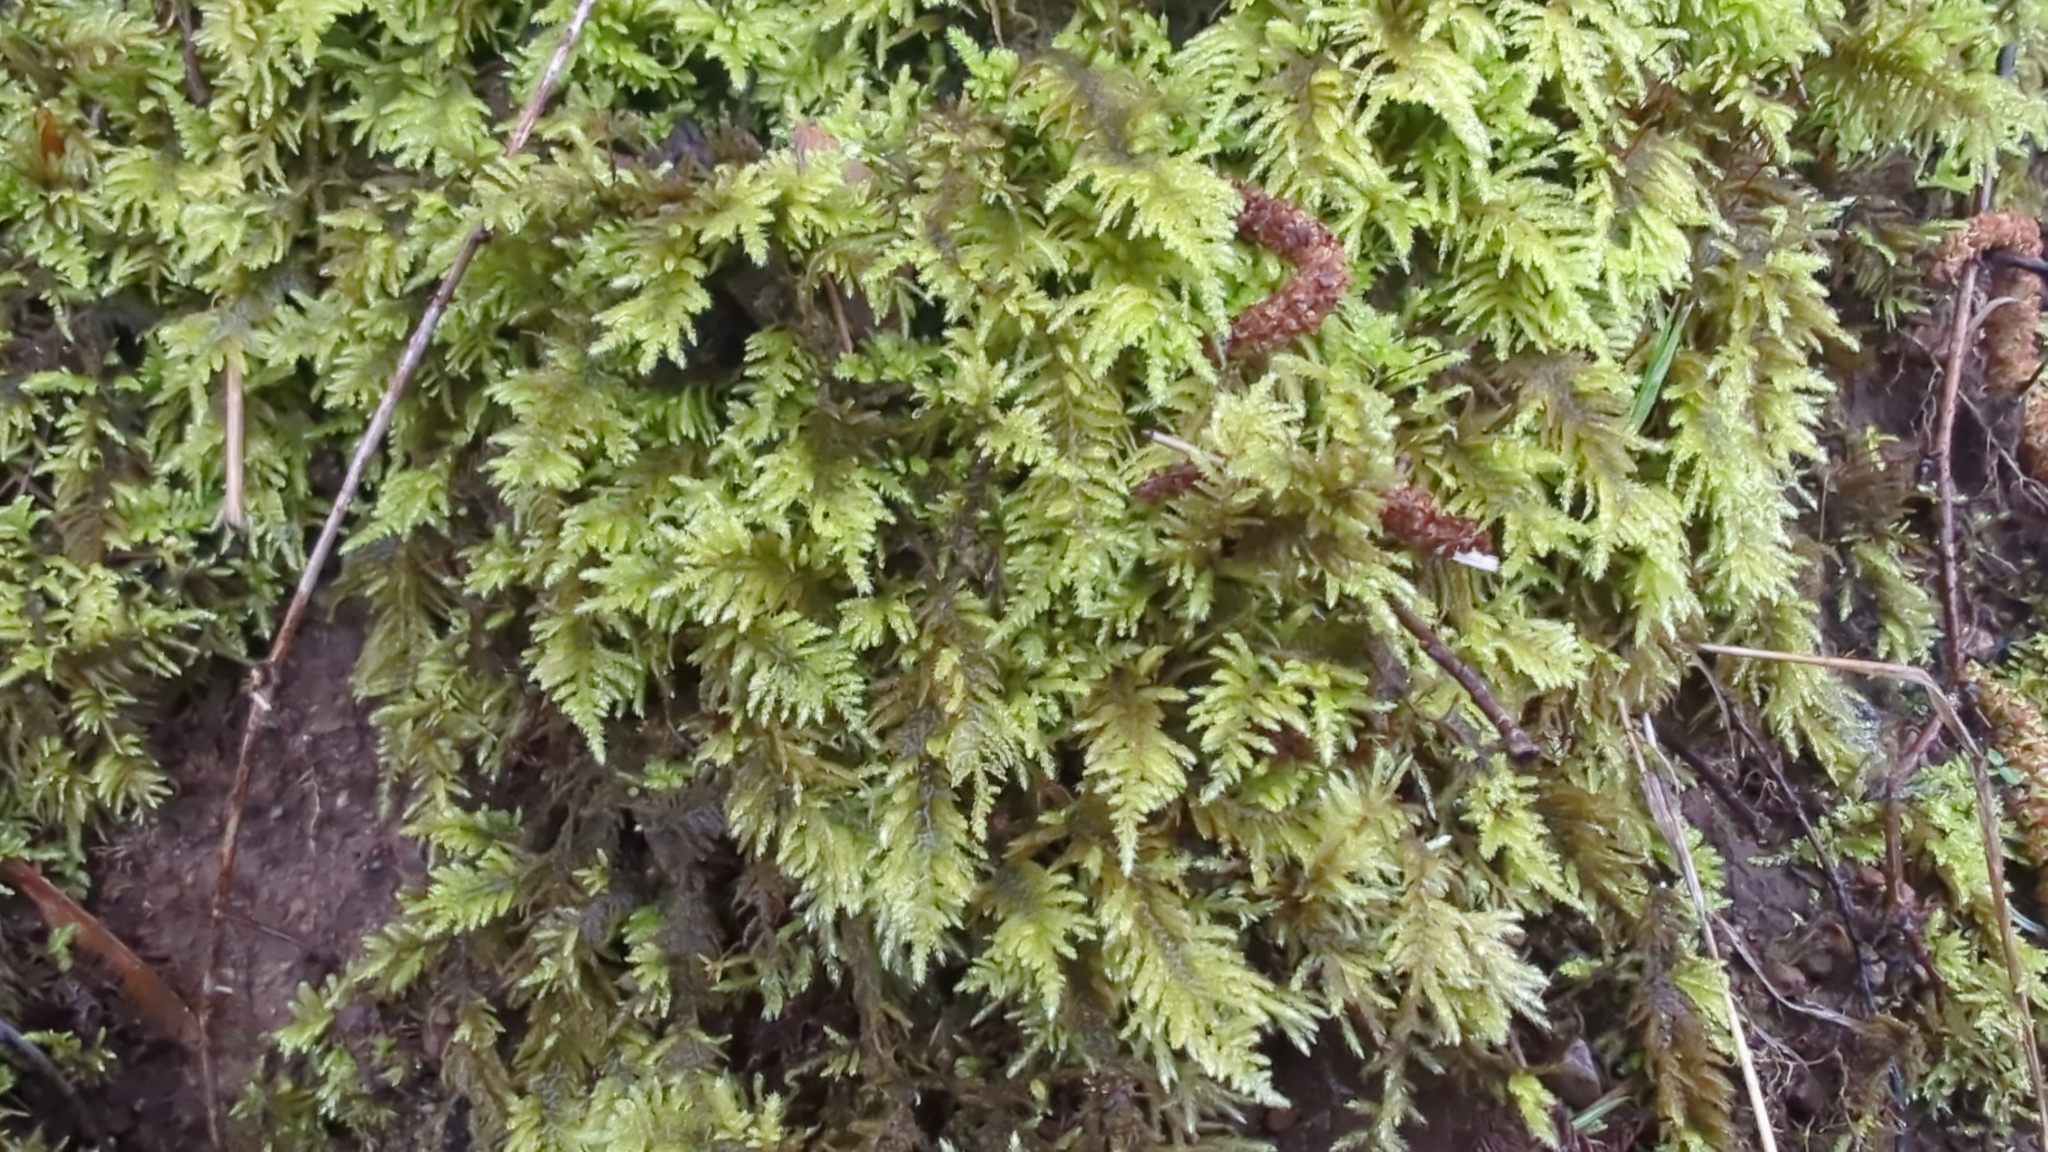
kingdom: Plantae
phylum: Bryophyta
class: Bryopsida
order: Hypnales
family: Brachytheciaceae
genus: Kindbergia
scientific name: Kindbergia oregana
